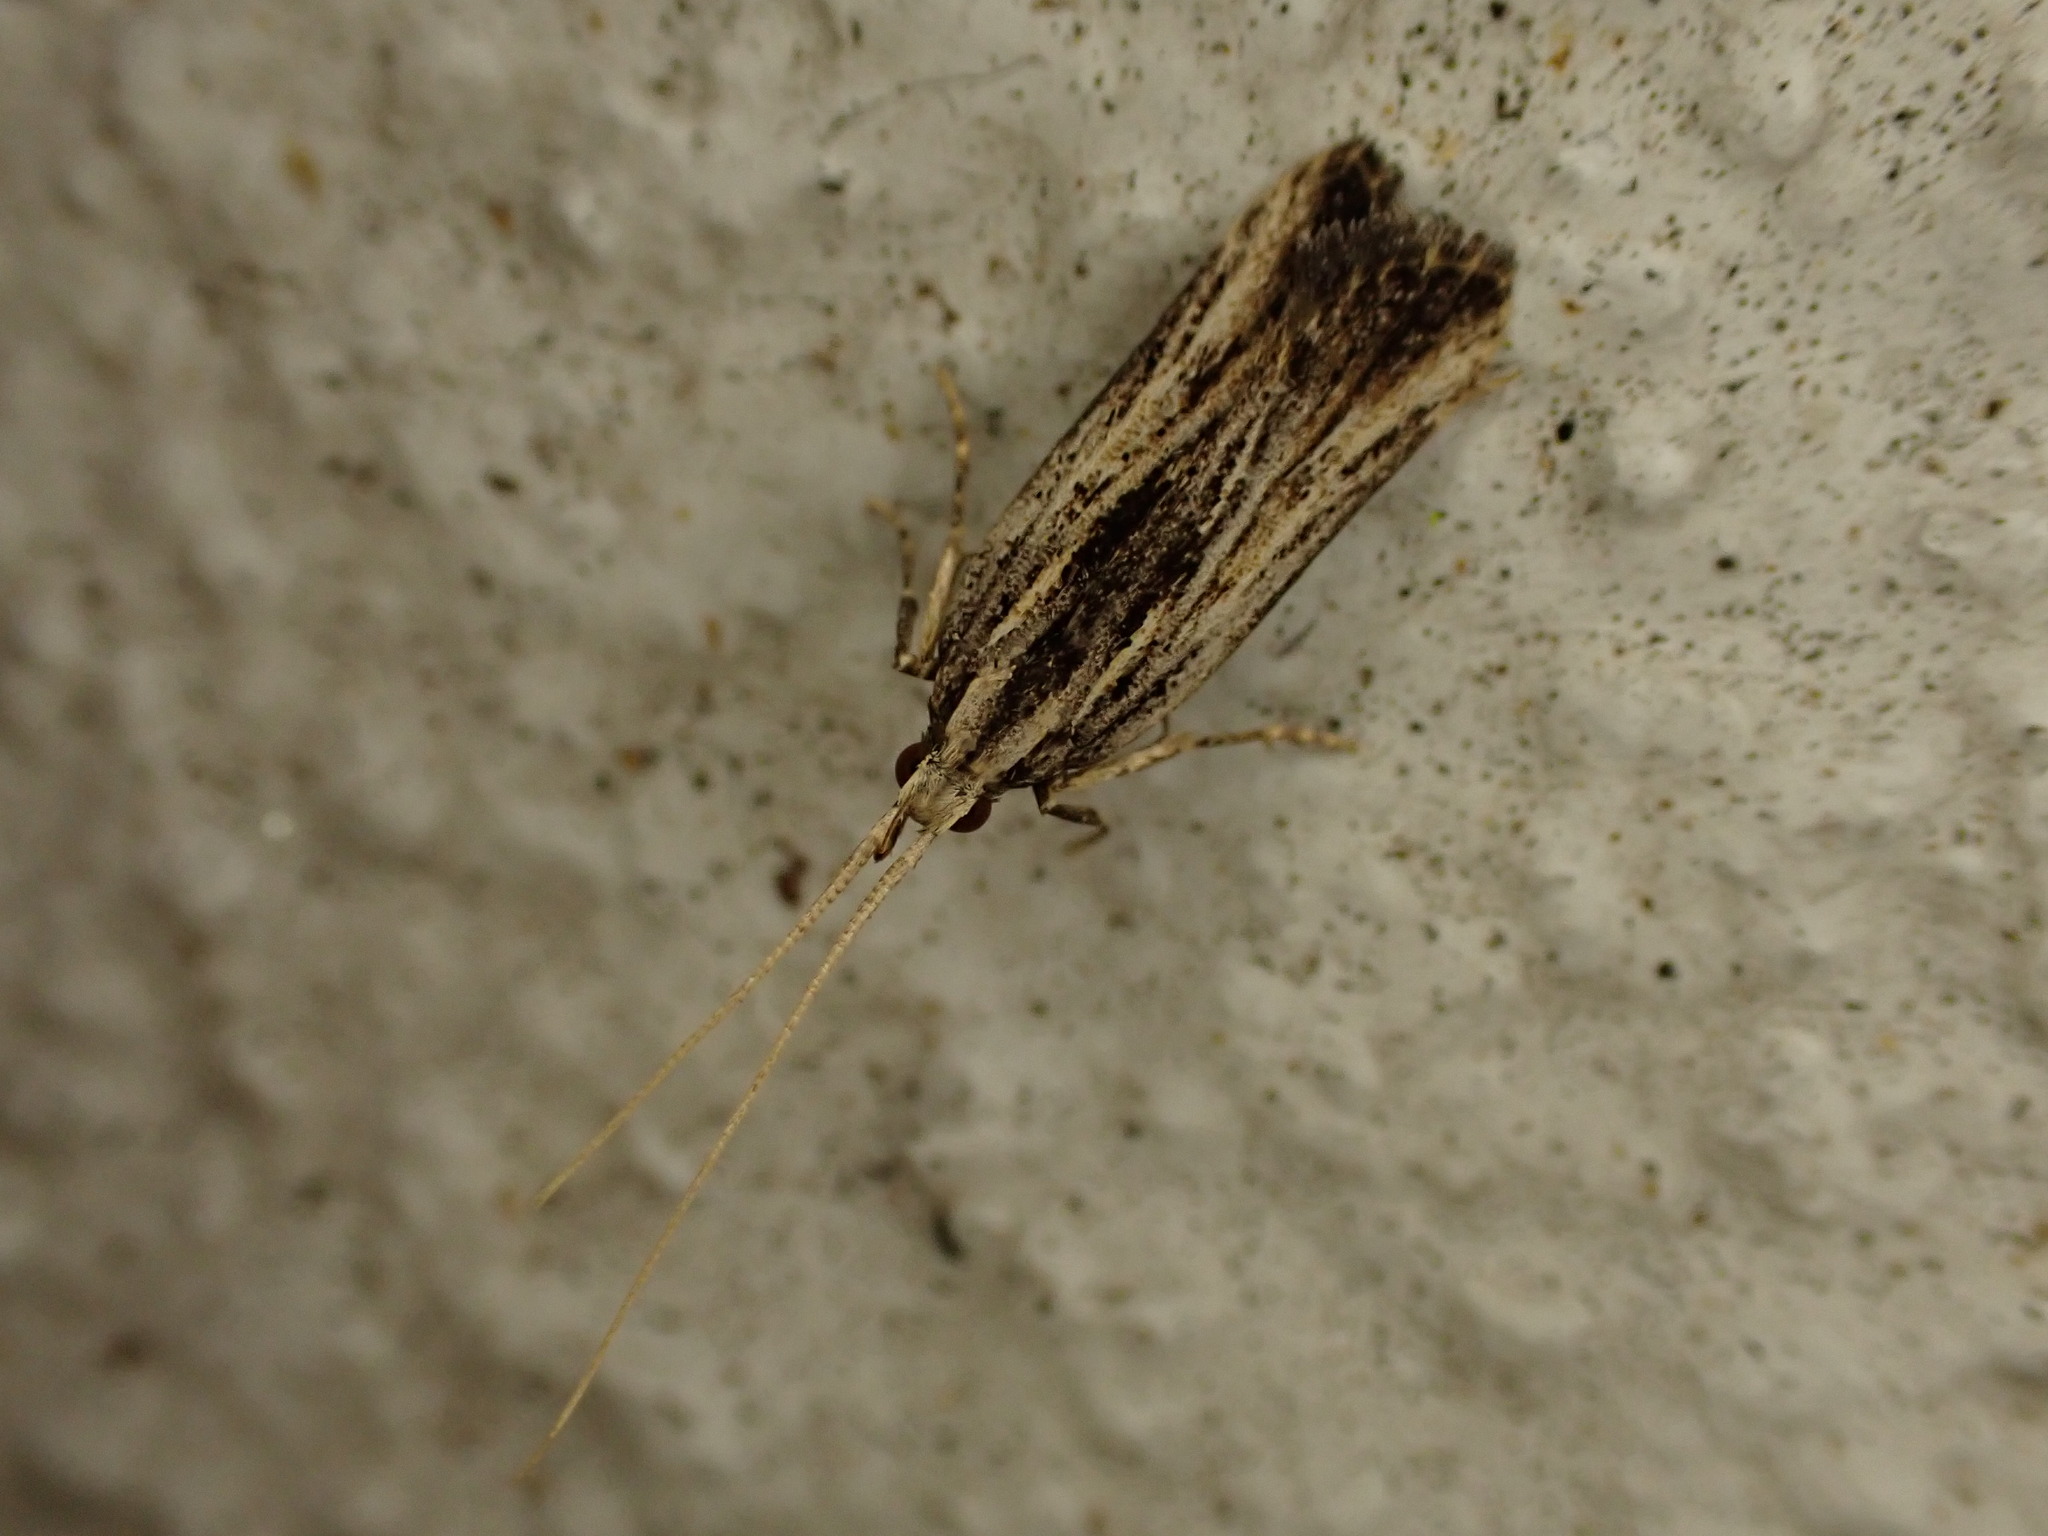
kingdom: Animalia
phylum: Arthropoda
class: Insecta
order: Lepidoptera
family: Lecithoceridae
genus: Sarisophora
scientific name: Sarisophora leucoscia
